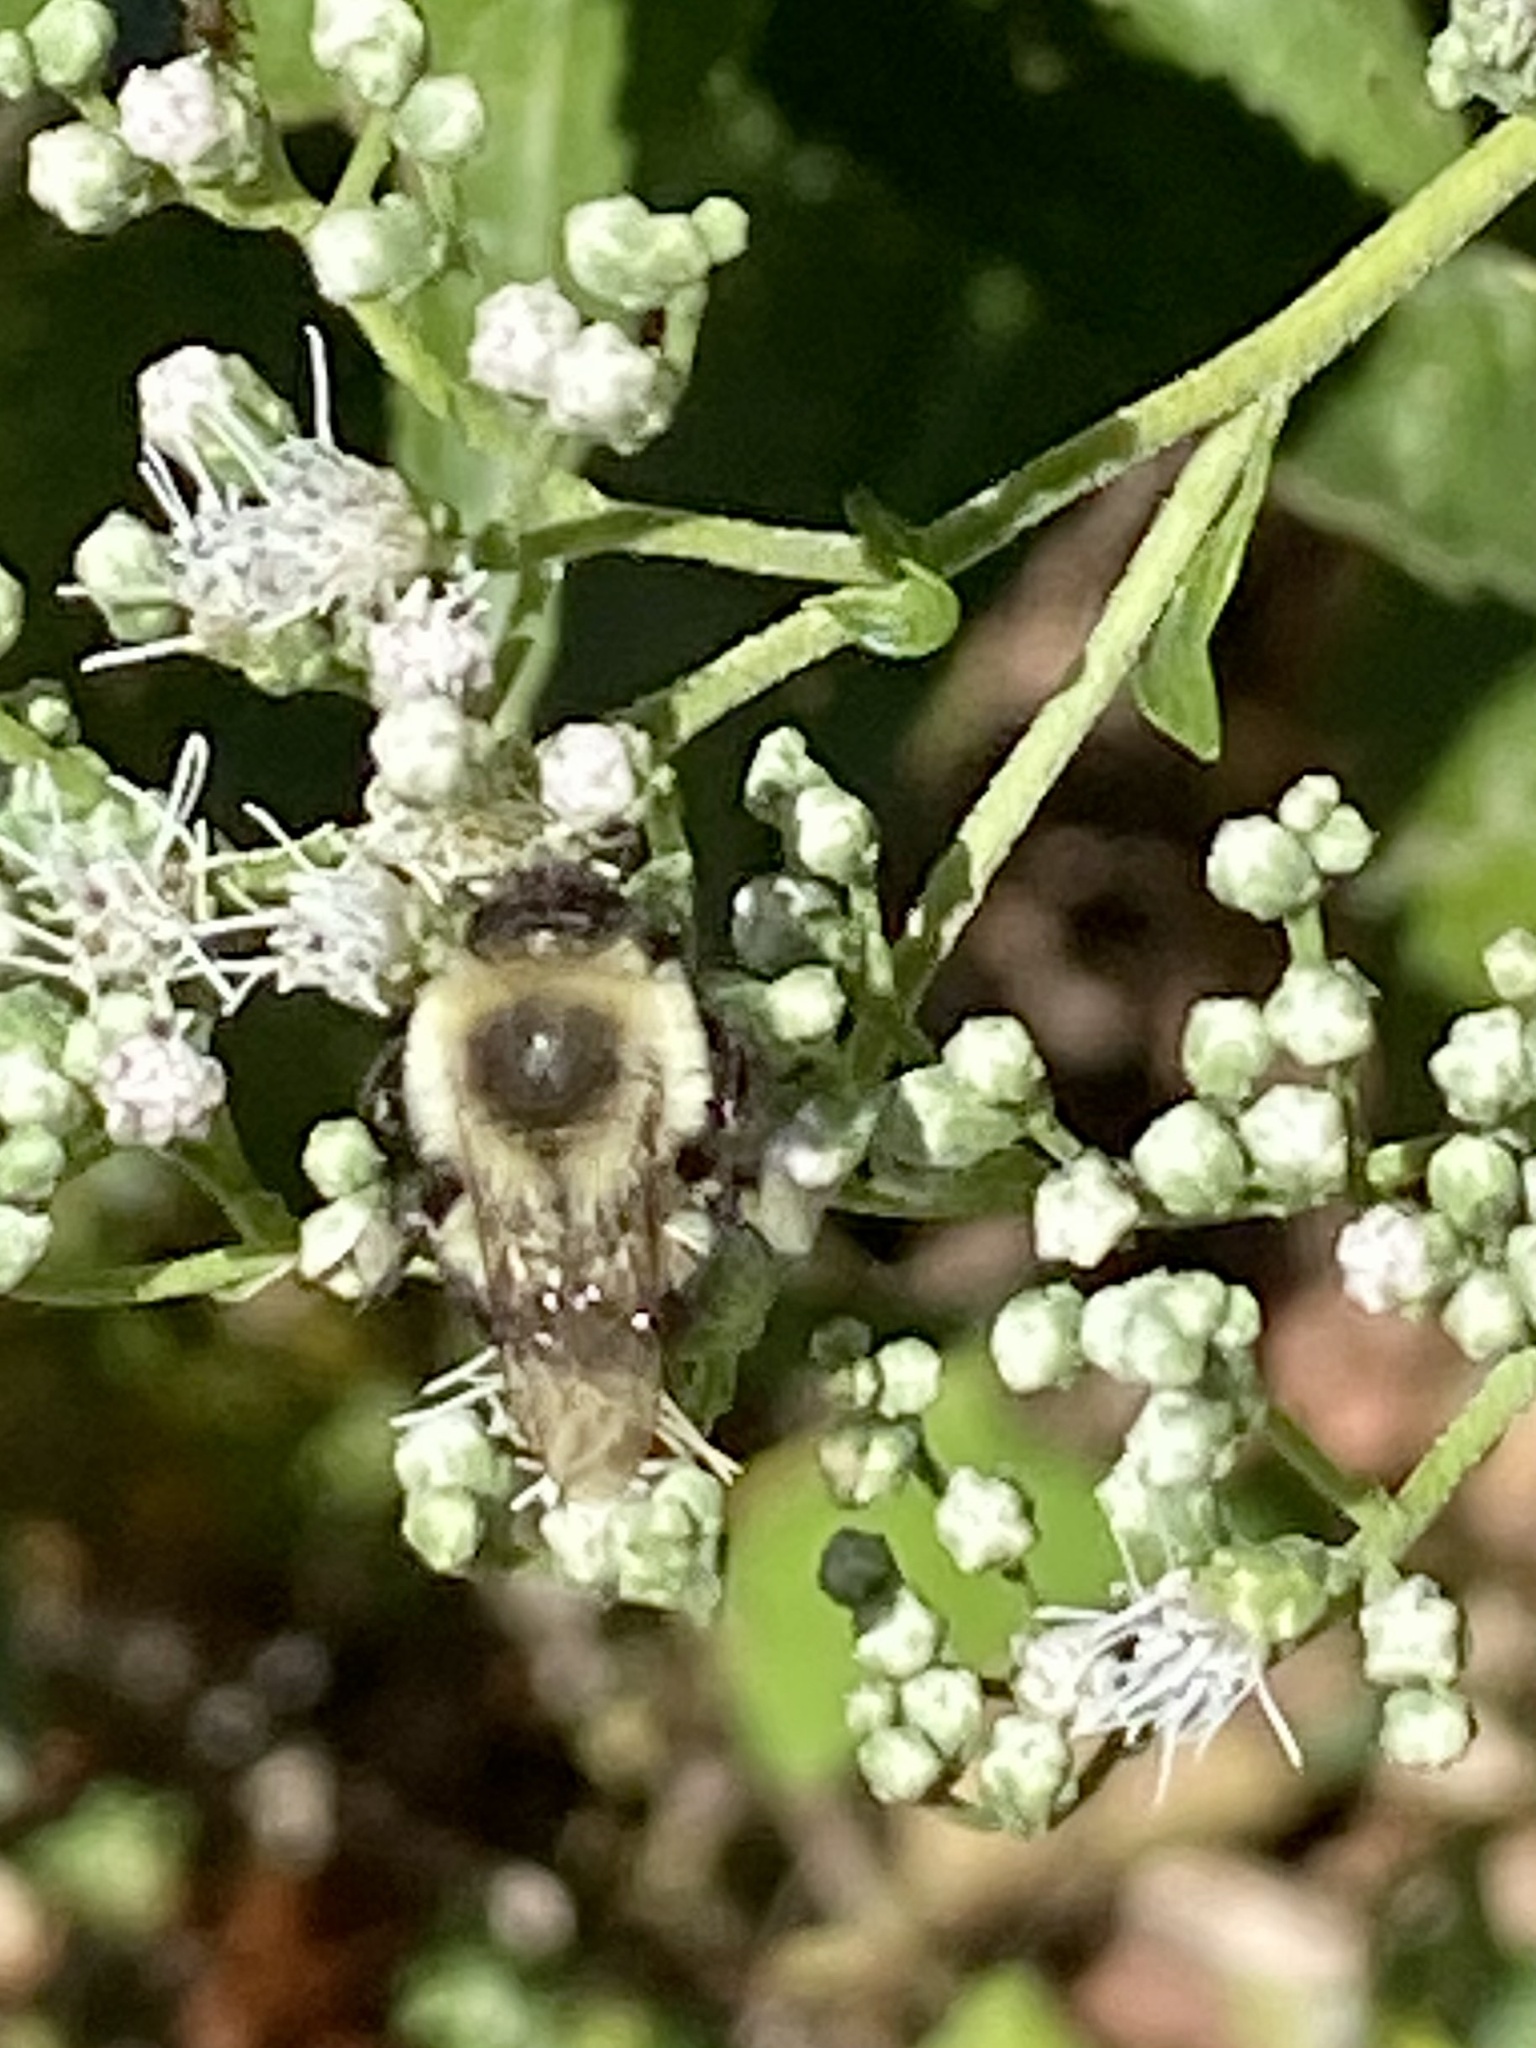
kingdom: Animalia
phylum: Arthropoda
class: Insecta
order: Hymenoptera
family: Apidae
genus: Bombus
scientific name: Bombus impatiens
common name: Common eastern bumble bee
